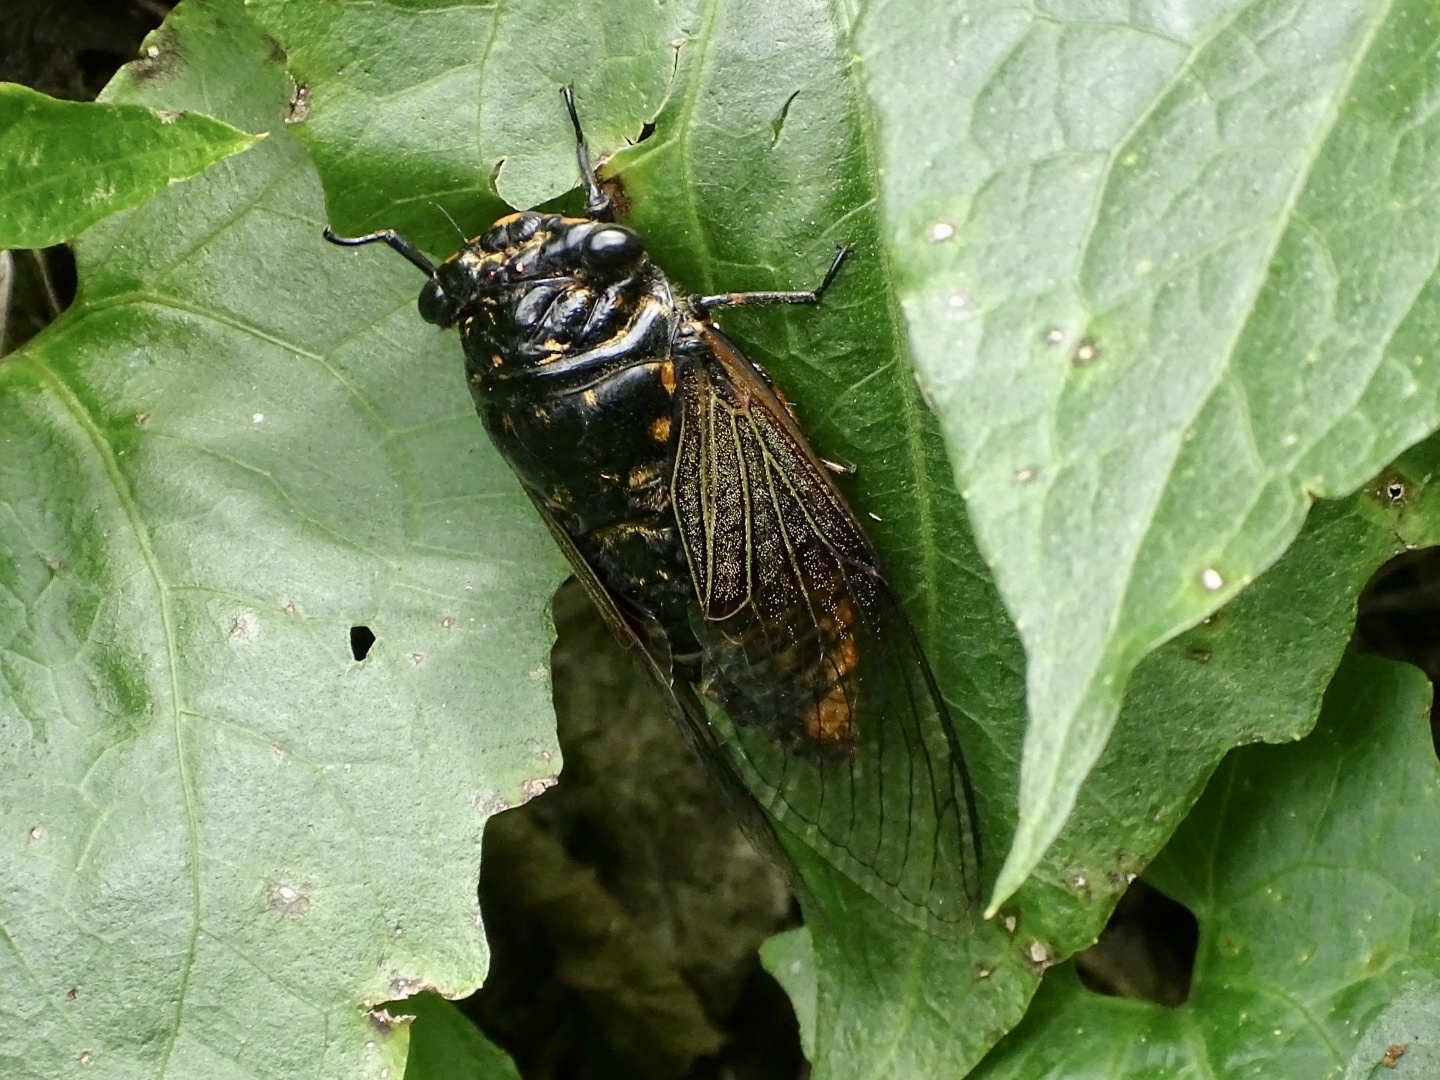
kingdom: Animalia
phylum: Arthropoda
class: Insecta
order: Hemiptera
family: Cicadidae
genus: Cryptotympana
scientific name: Cryptotympana mandarina
